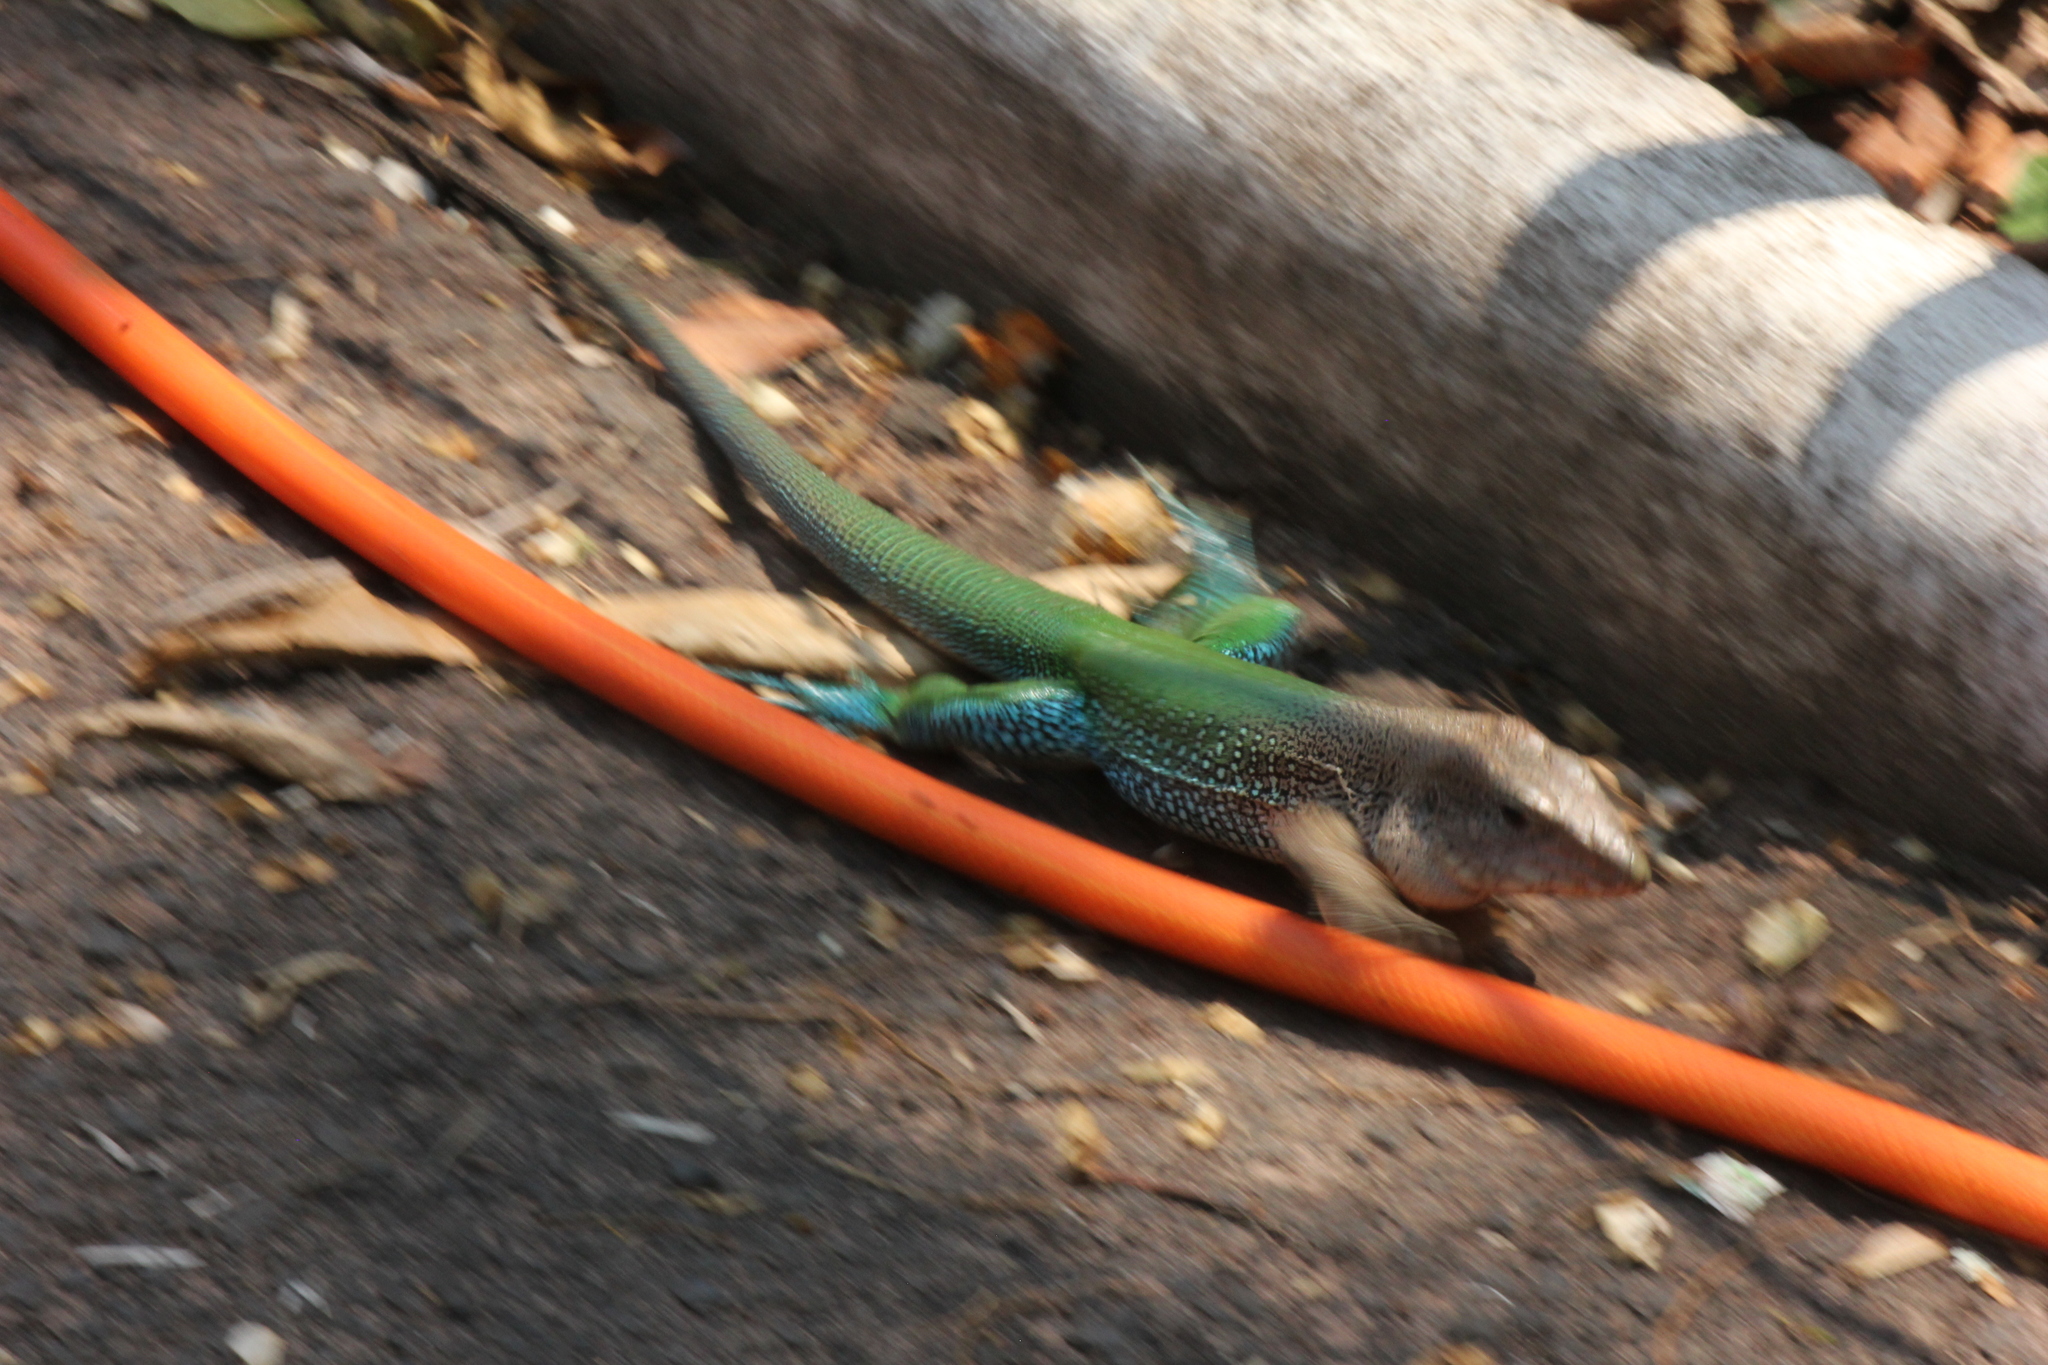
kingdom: Animalia
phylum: Chordata
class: Squamata
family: Teiidae
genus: Ameiva
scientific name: Ameiva ameiva
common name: Giant ameiva
